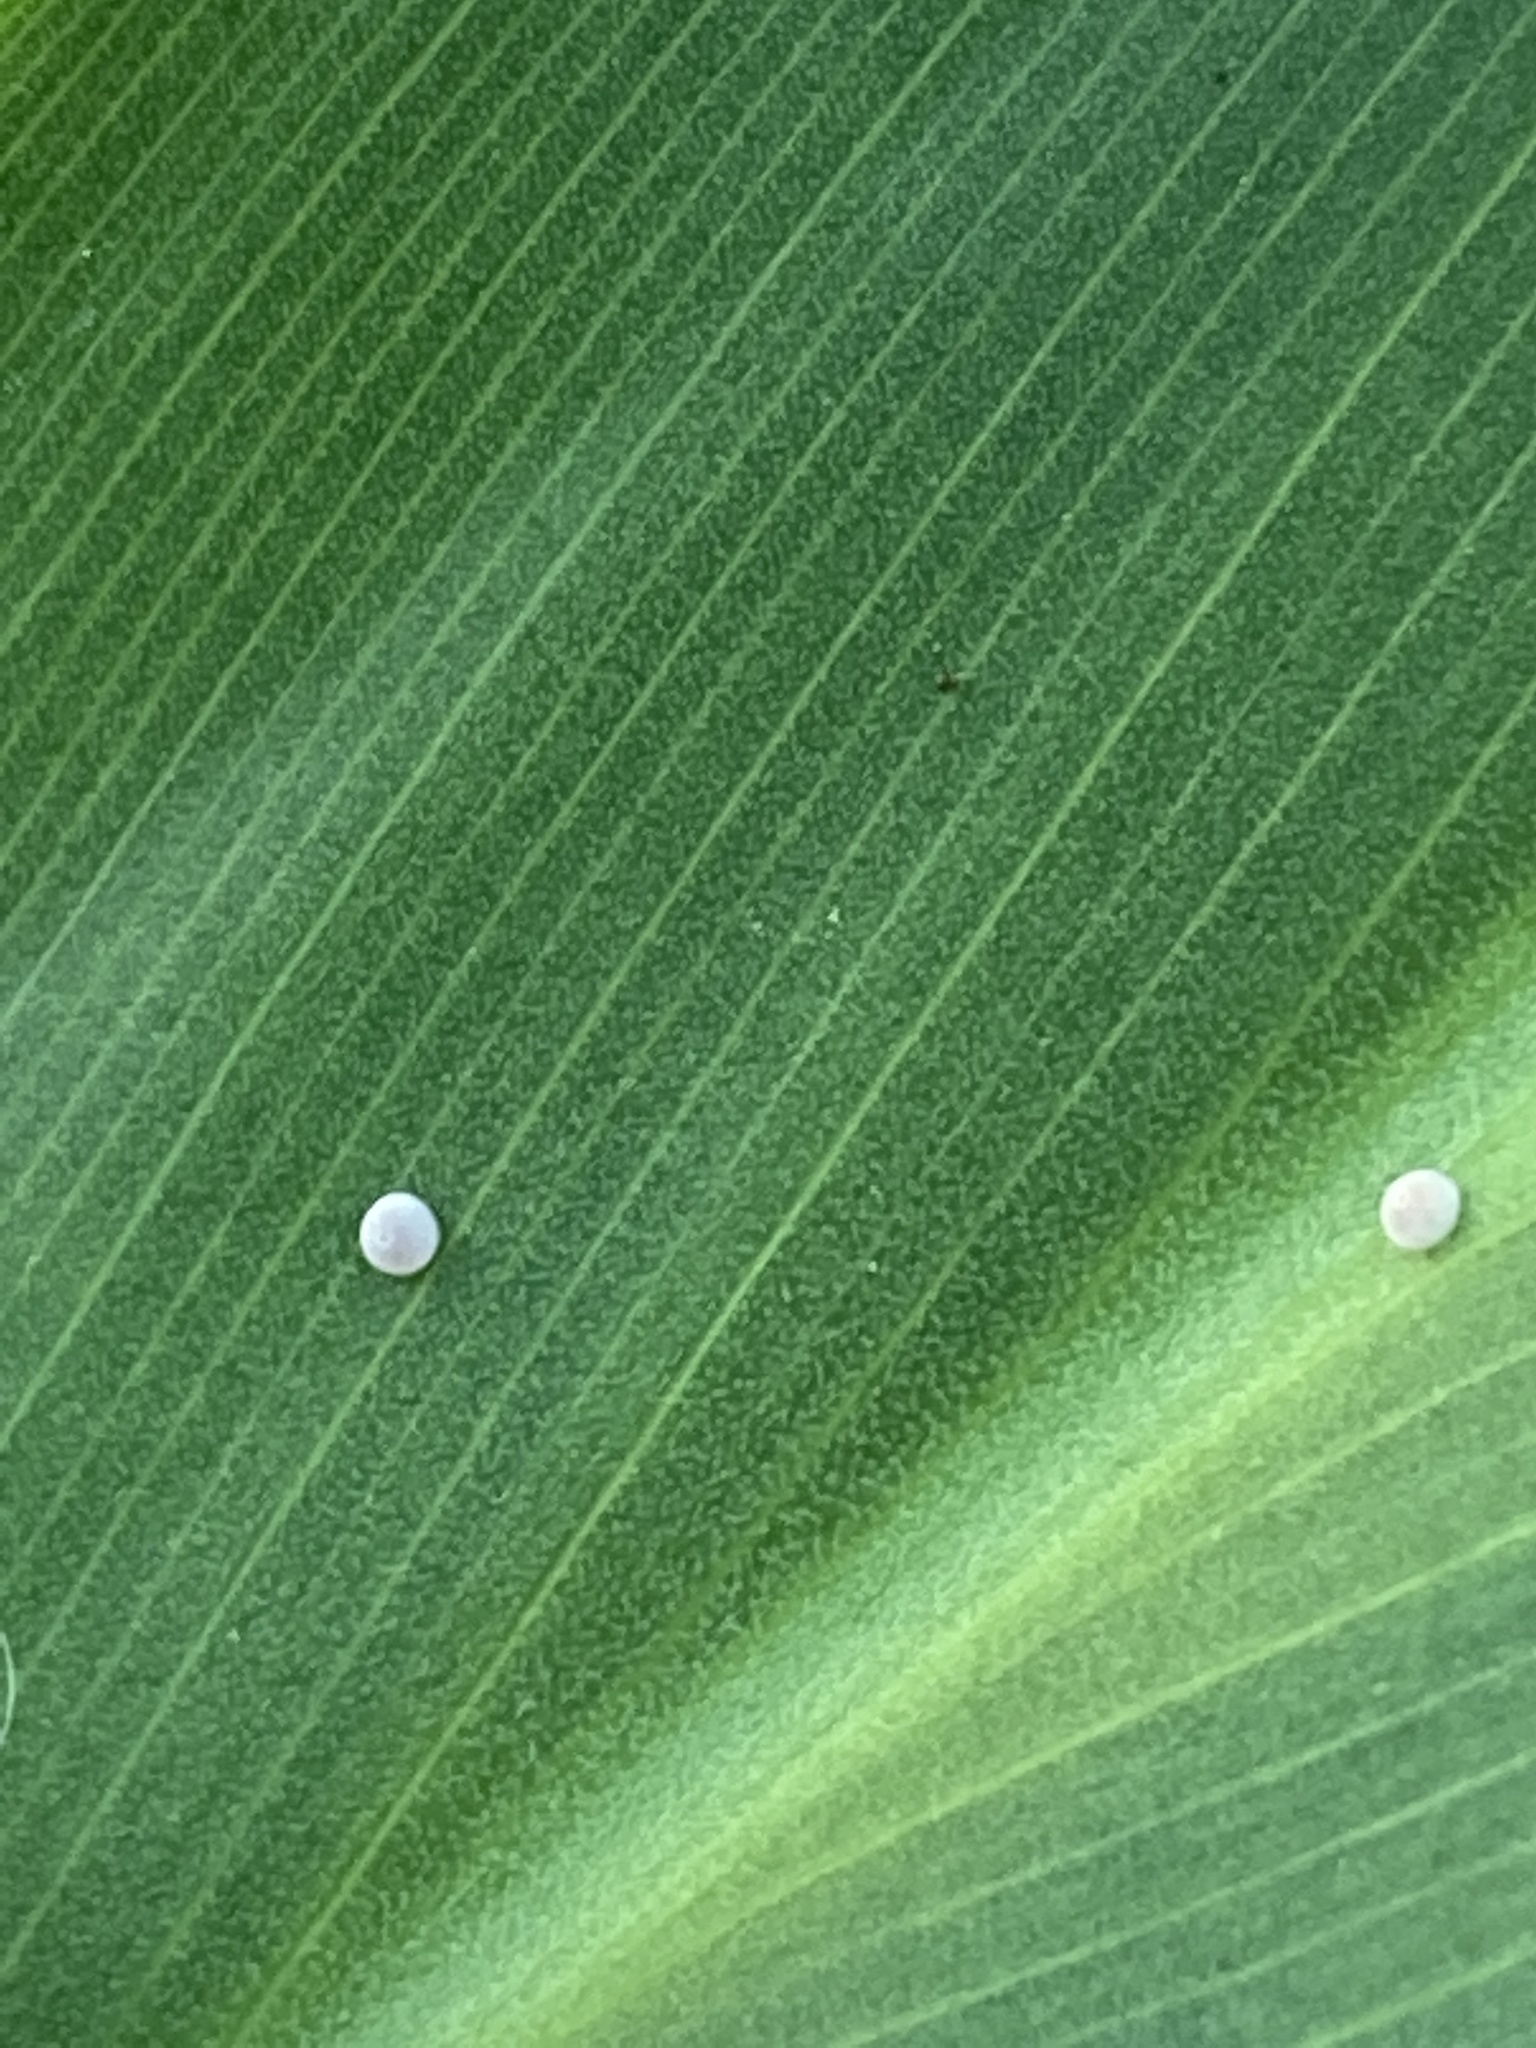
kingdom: Animalia
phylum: Arthropoda
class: Insecta
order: Lepidoptera
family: Hesperiidae
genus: Calpodes
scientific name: Calpodes ethlius
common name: Brazilian skipper
